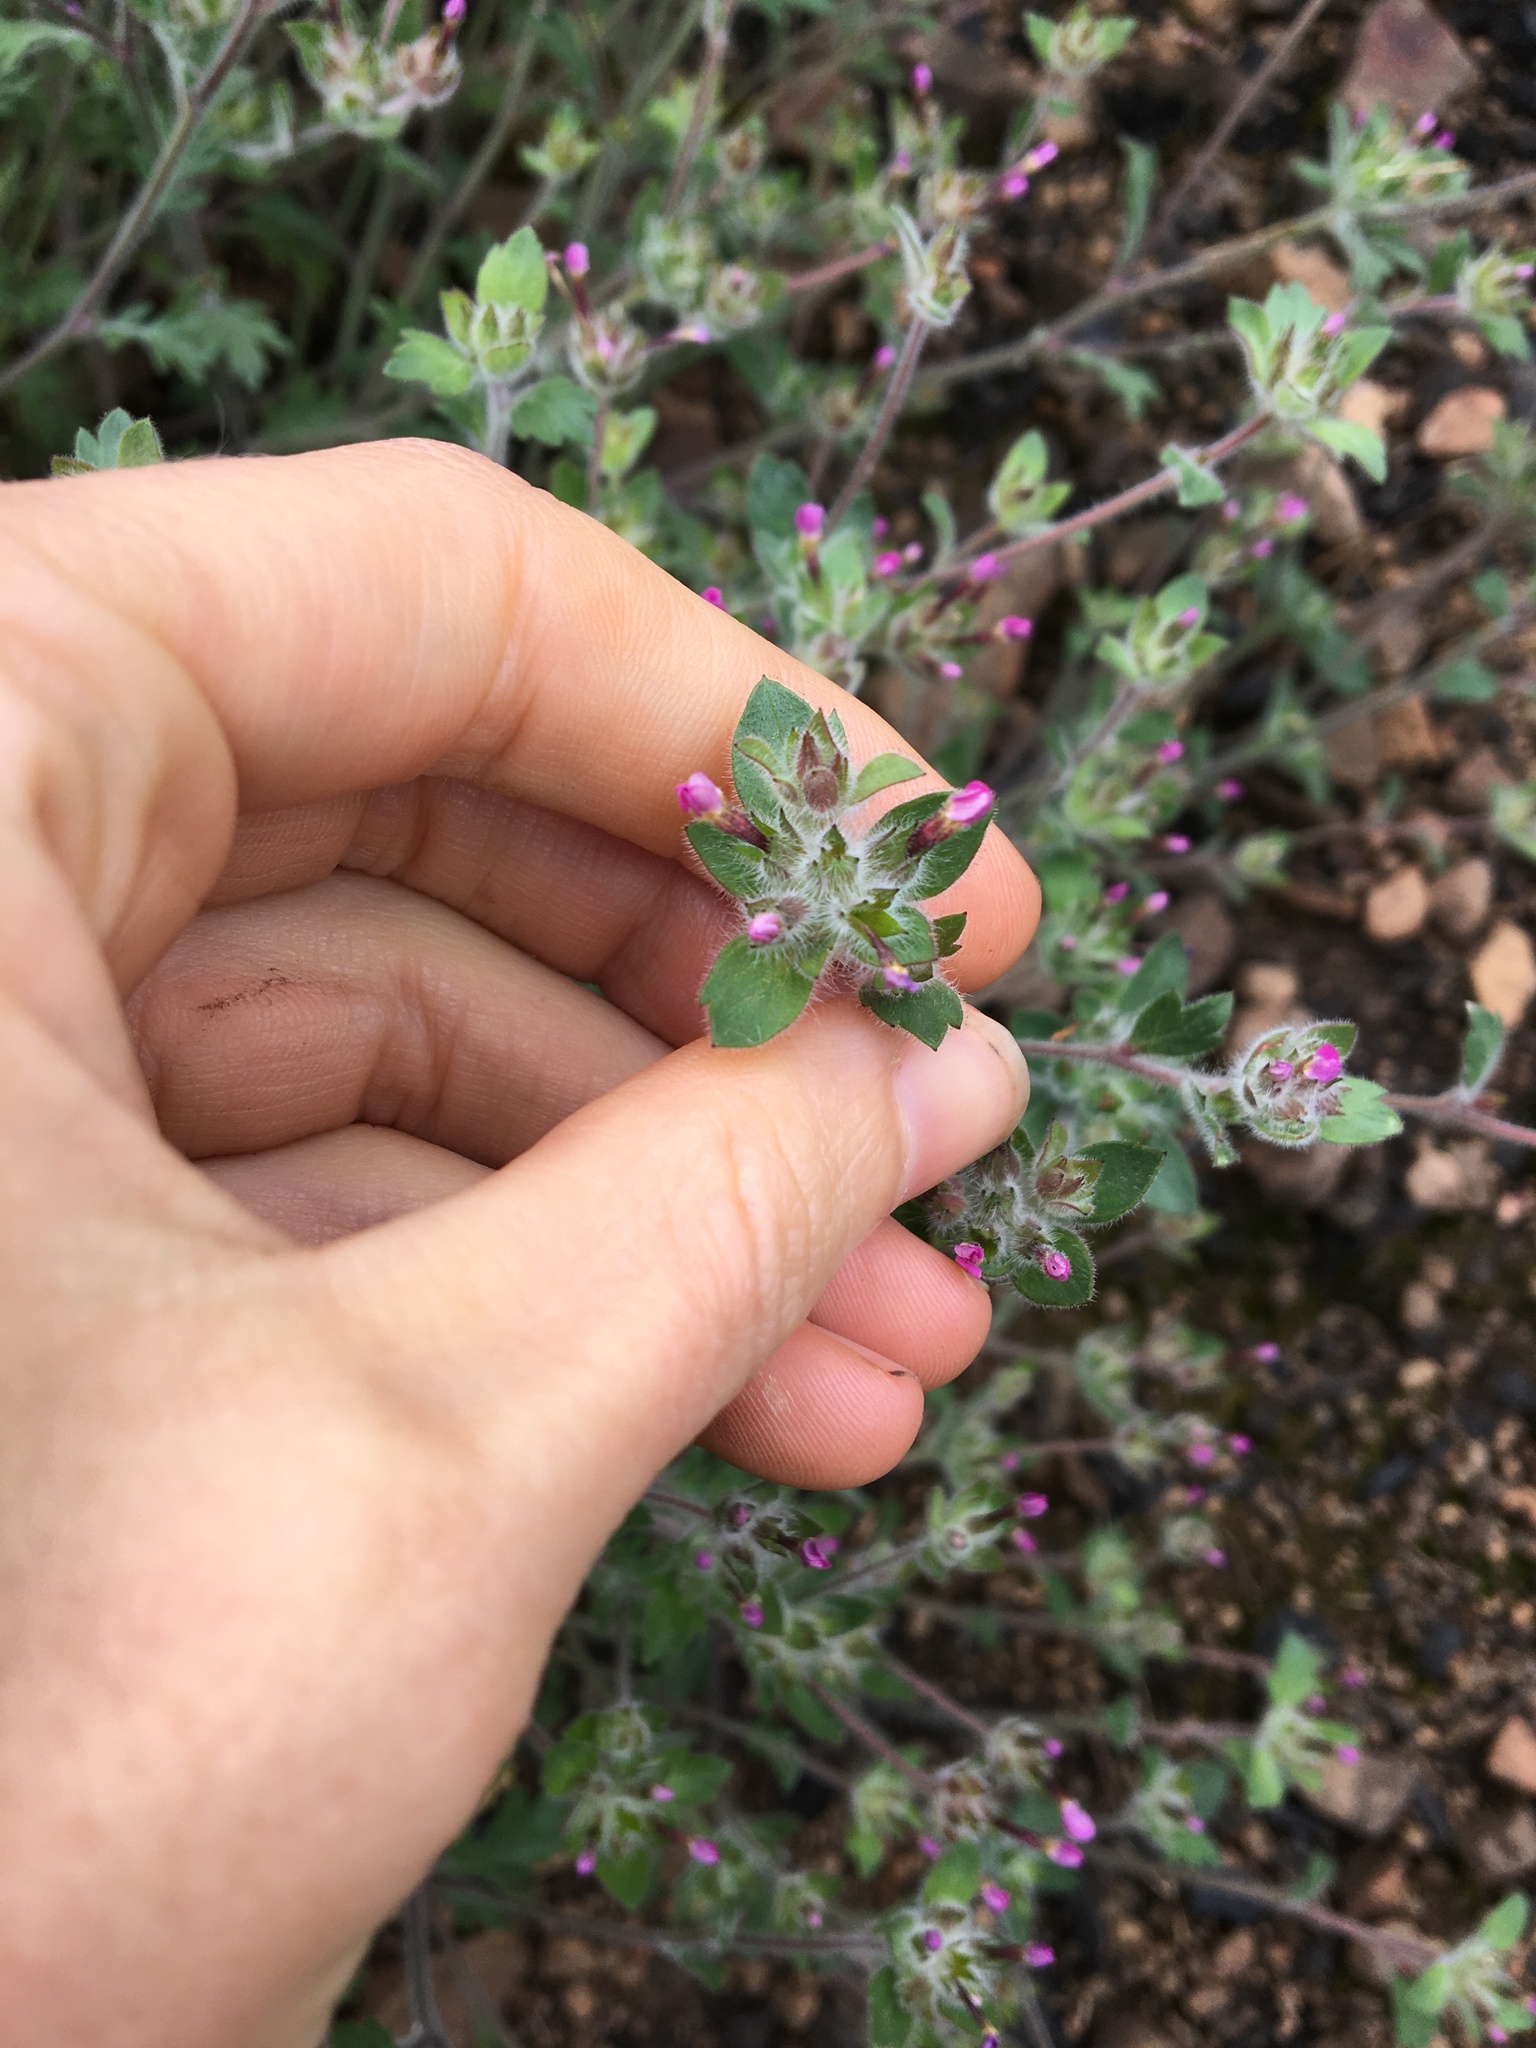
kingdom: Plantae
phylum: Tracheophyta
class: Magnoliopsida
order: Ericales
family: Polemoniaceae
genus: Collomia
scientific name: Collomia heterophylla
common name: Variable-leaved collomia
